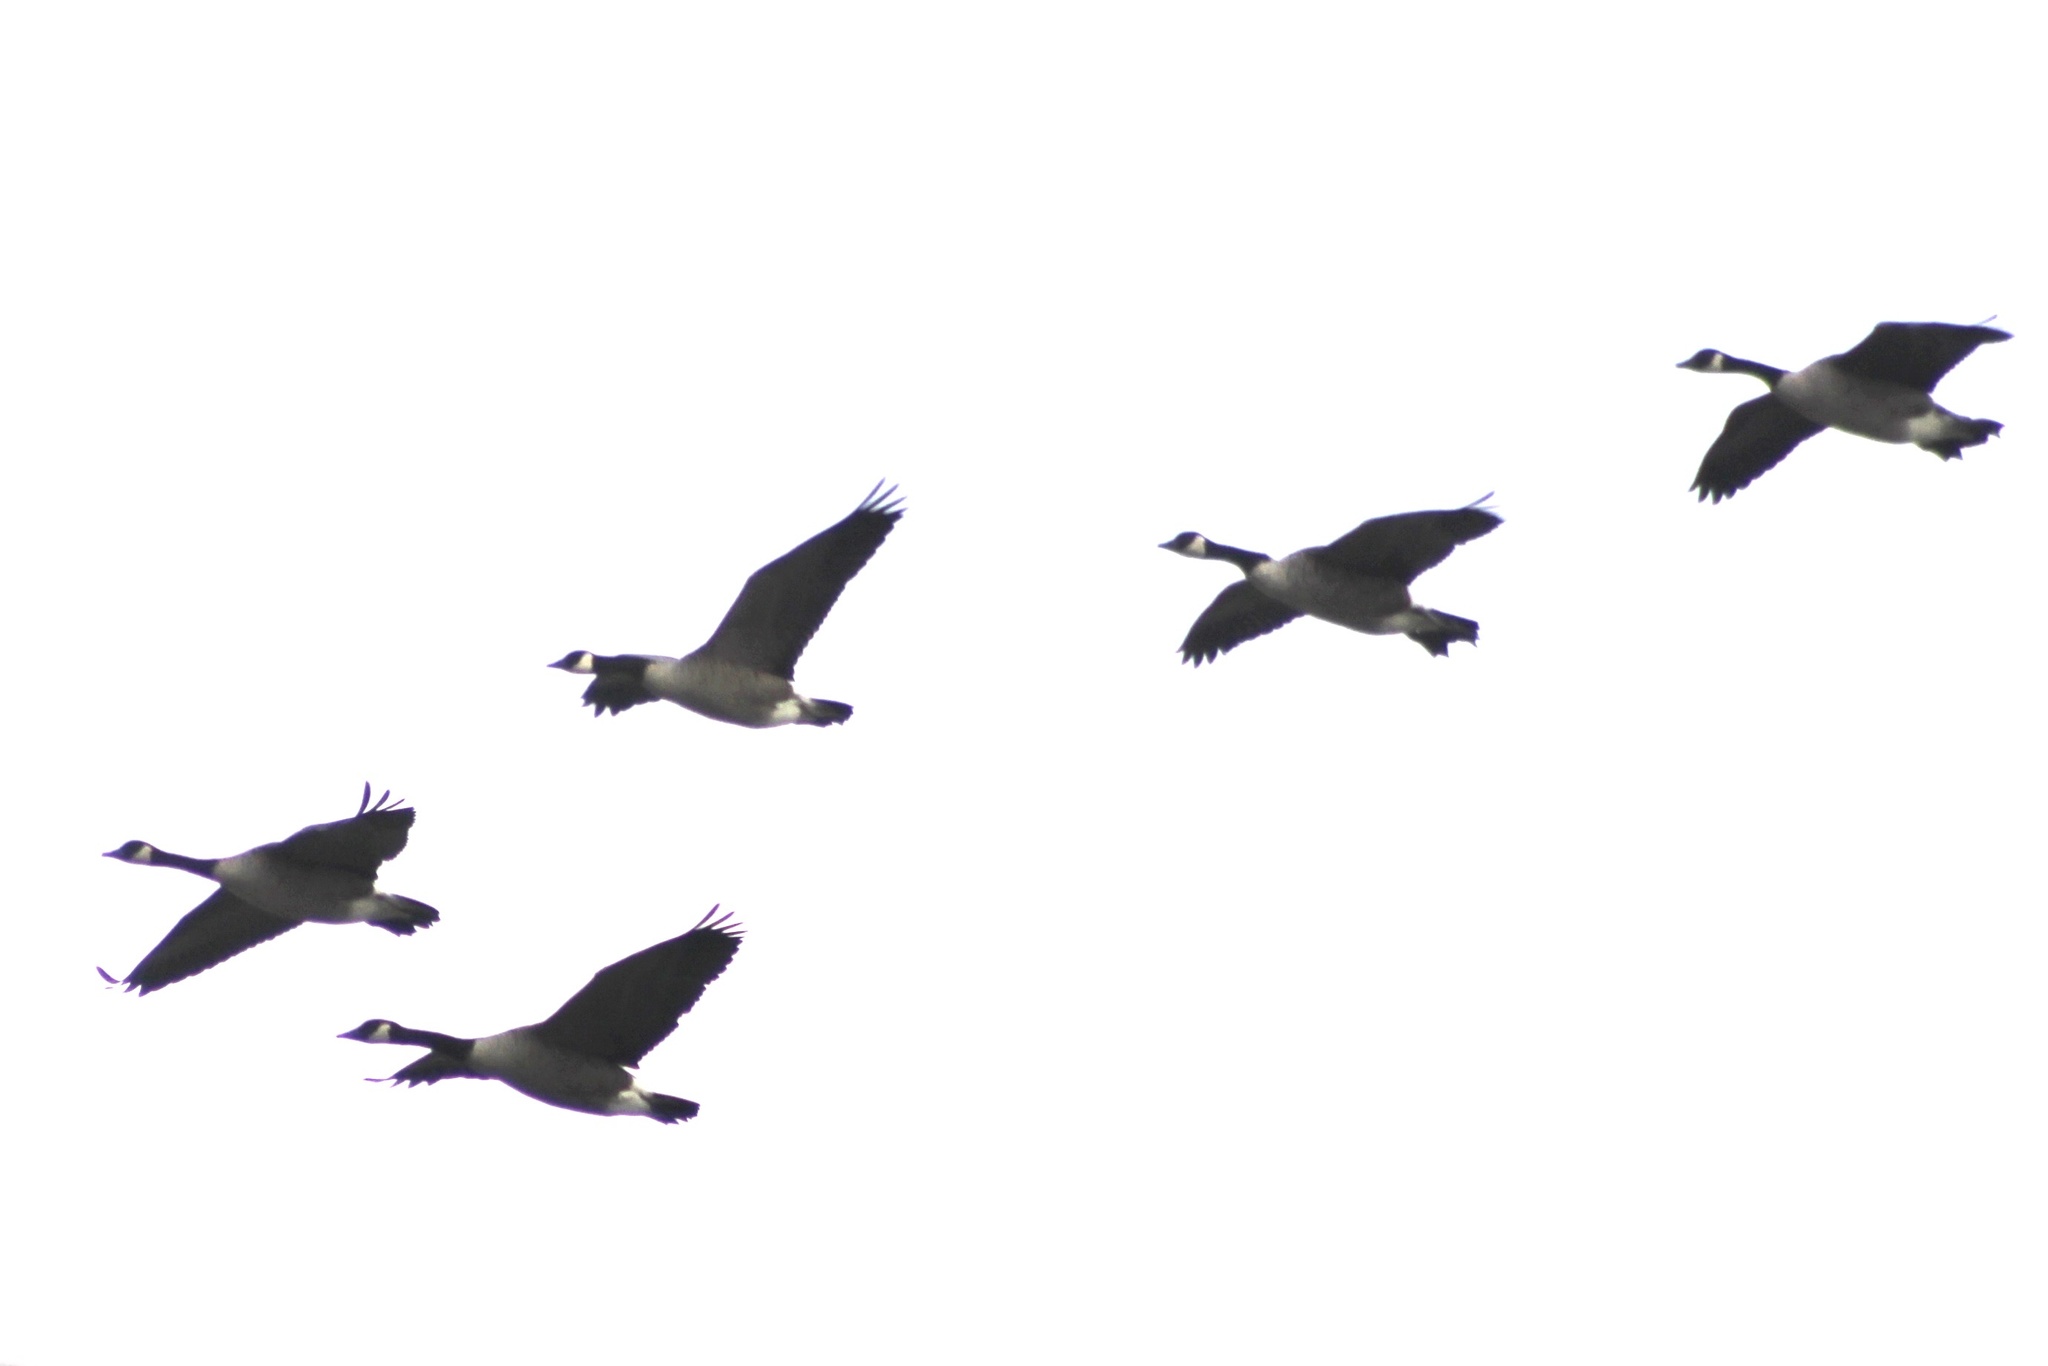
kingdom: Animalia
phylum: Chordata
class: Aves
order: Anseriformes
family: Anatidae
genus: Branta
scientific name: Branta canadensis
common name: Canada goose
